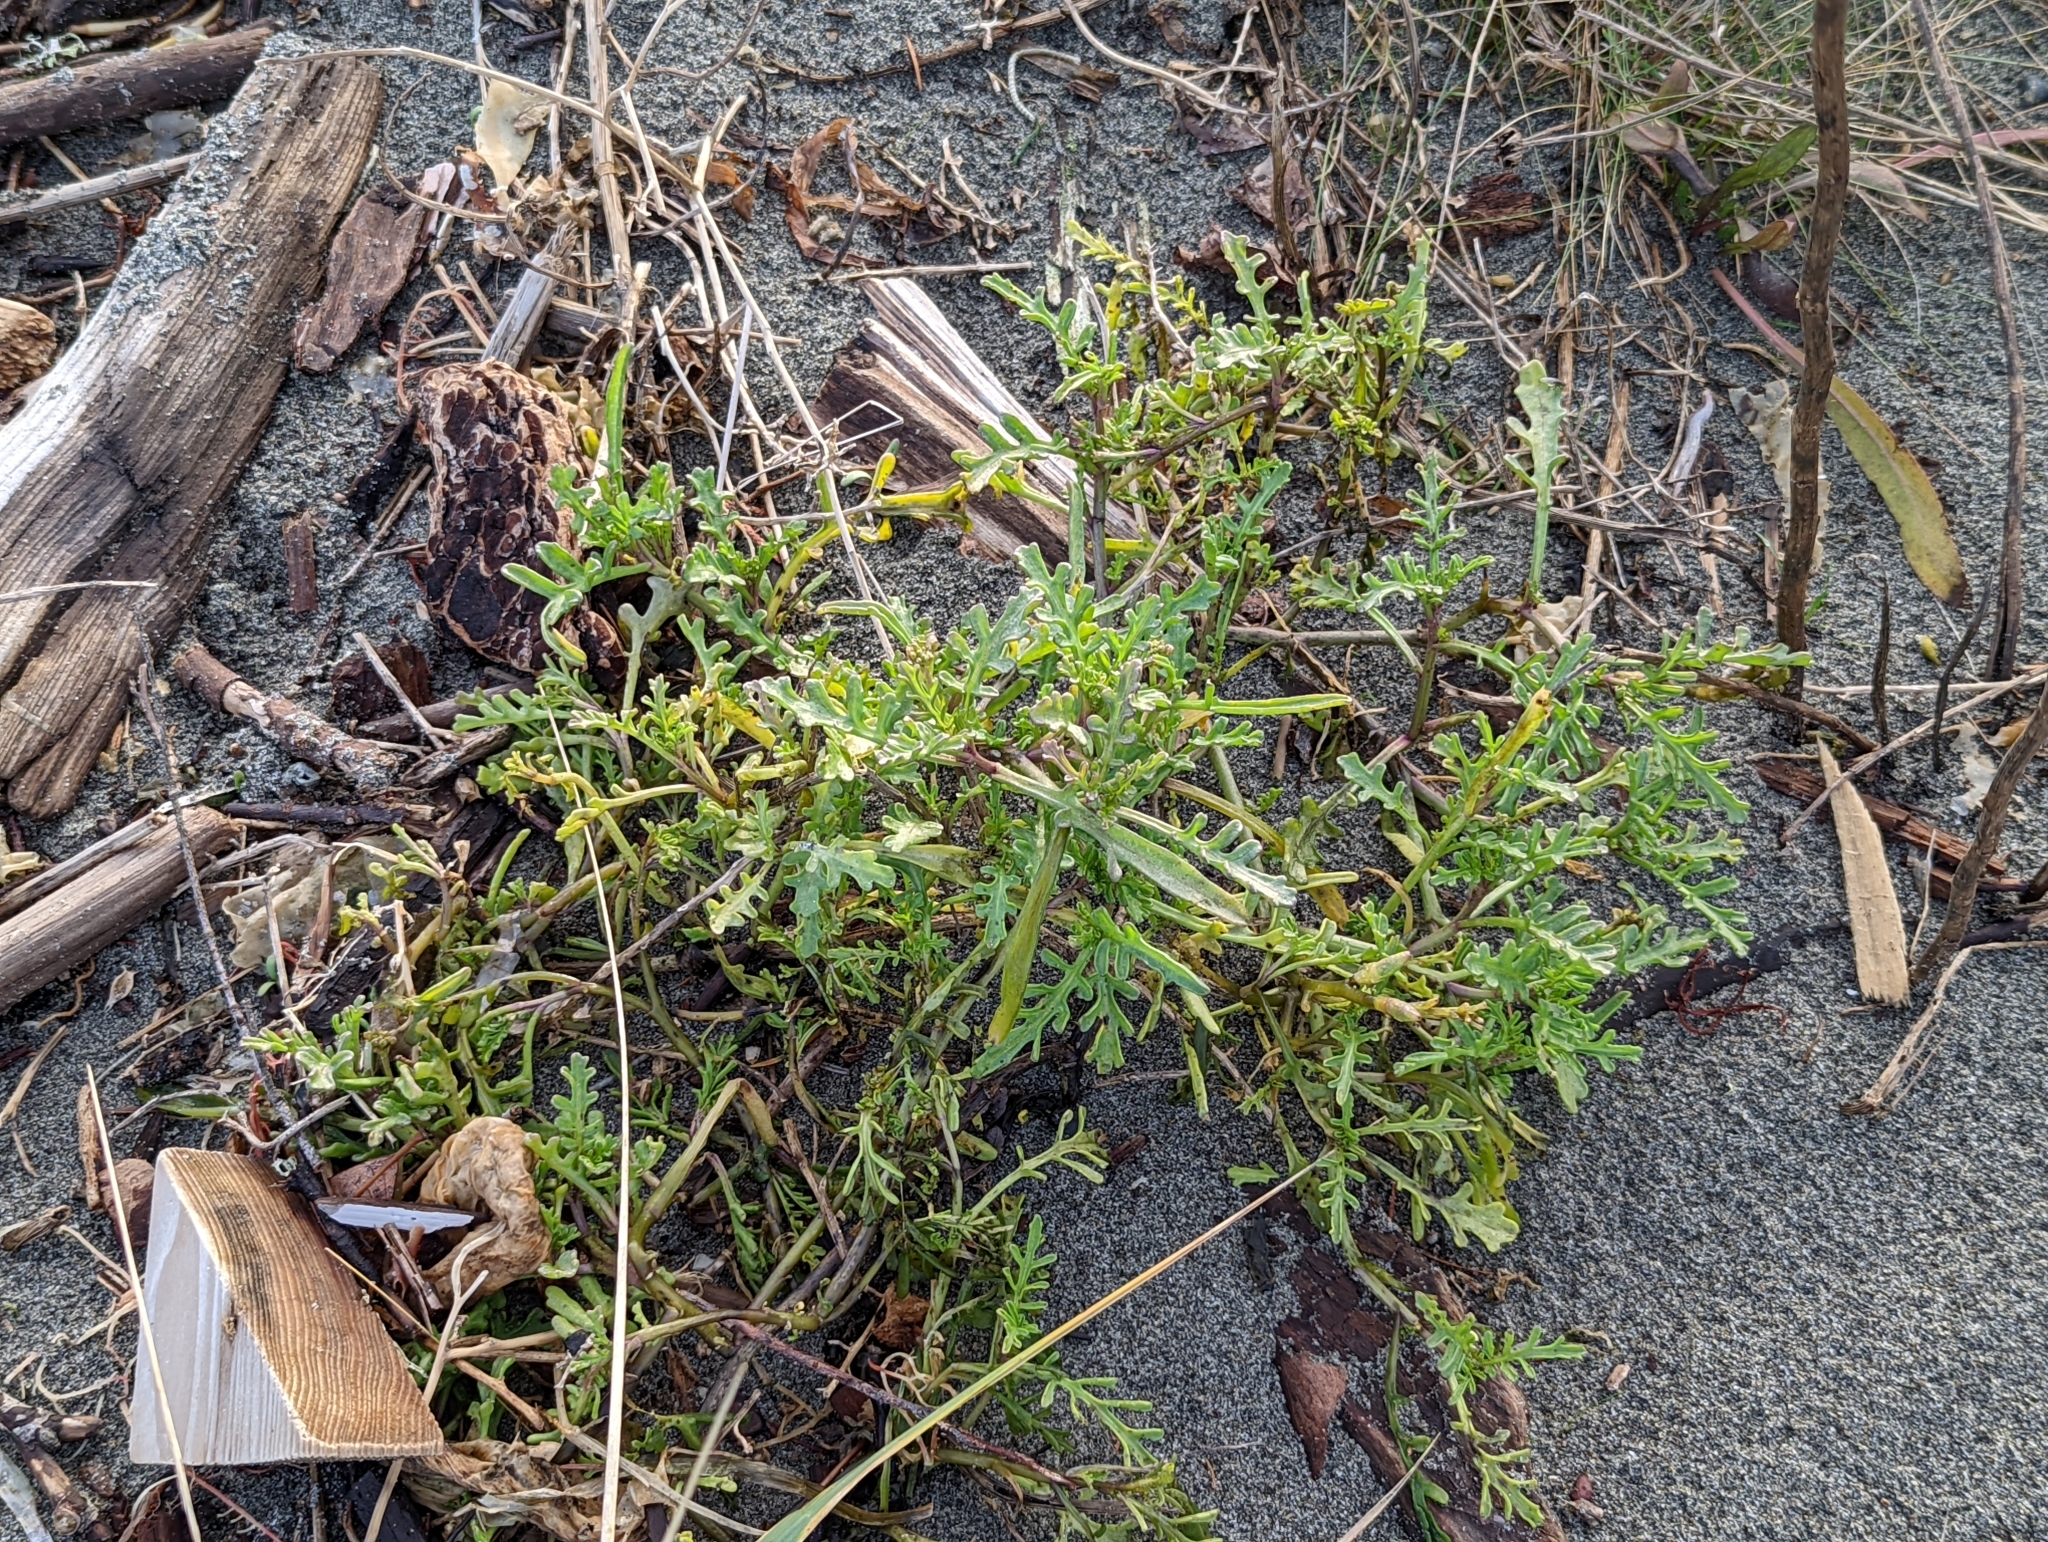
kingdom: Plantae
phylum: Tracheophyta
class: Magnoliopsida
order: Brassicales
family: Brassicaceae
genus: Cakile
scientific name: Cakile maritima
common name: Sea rocket
